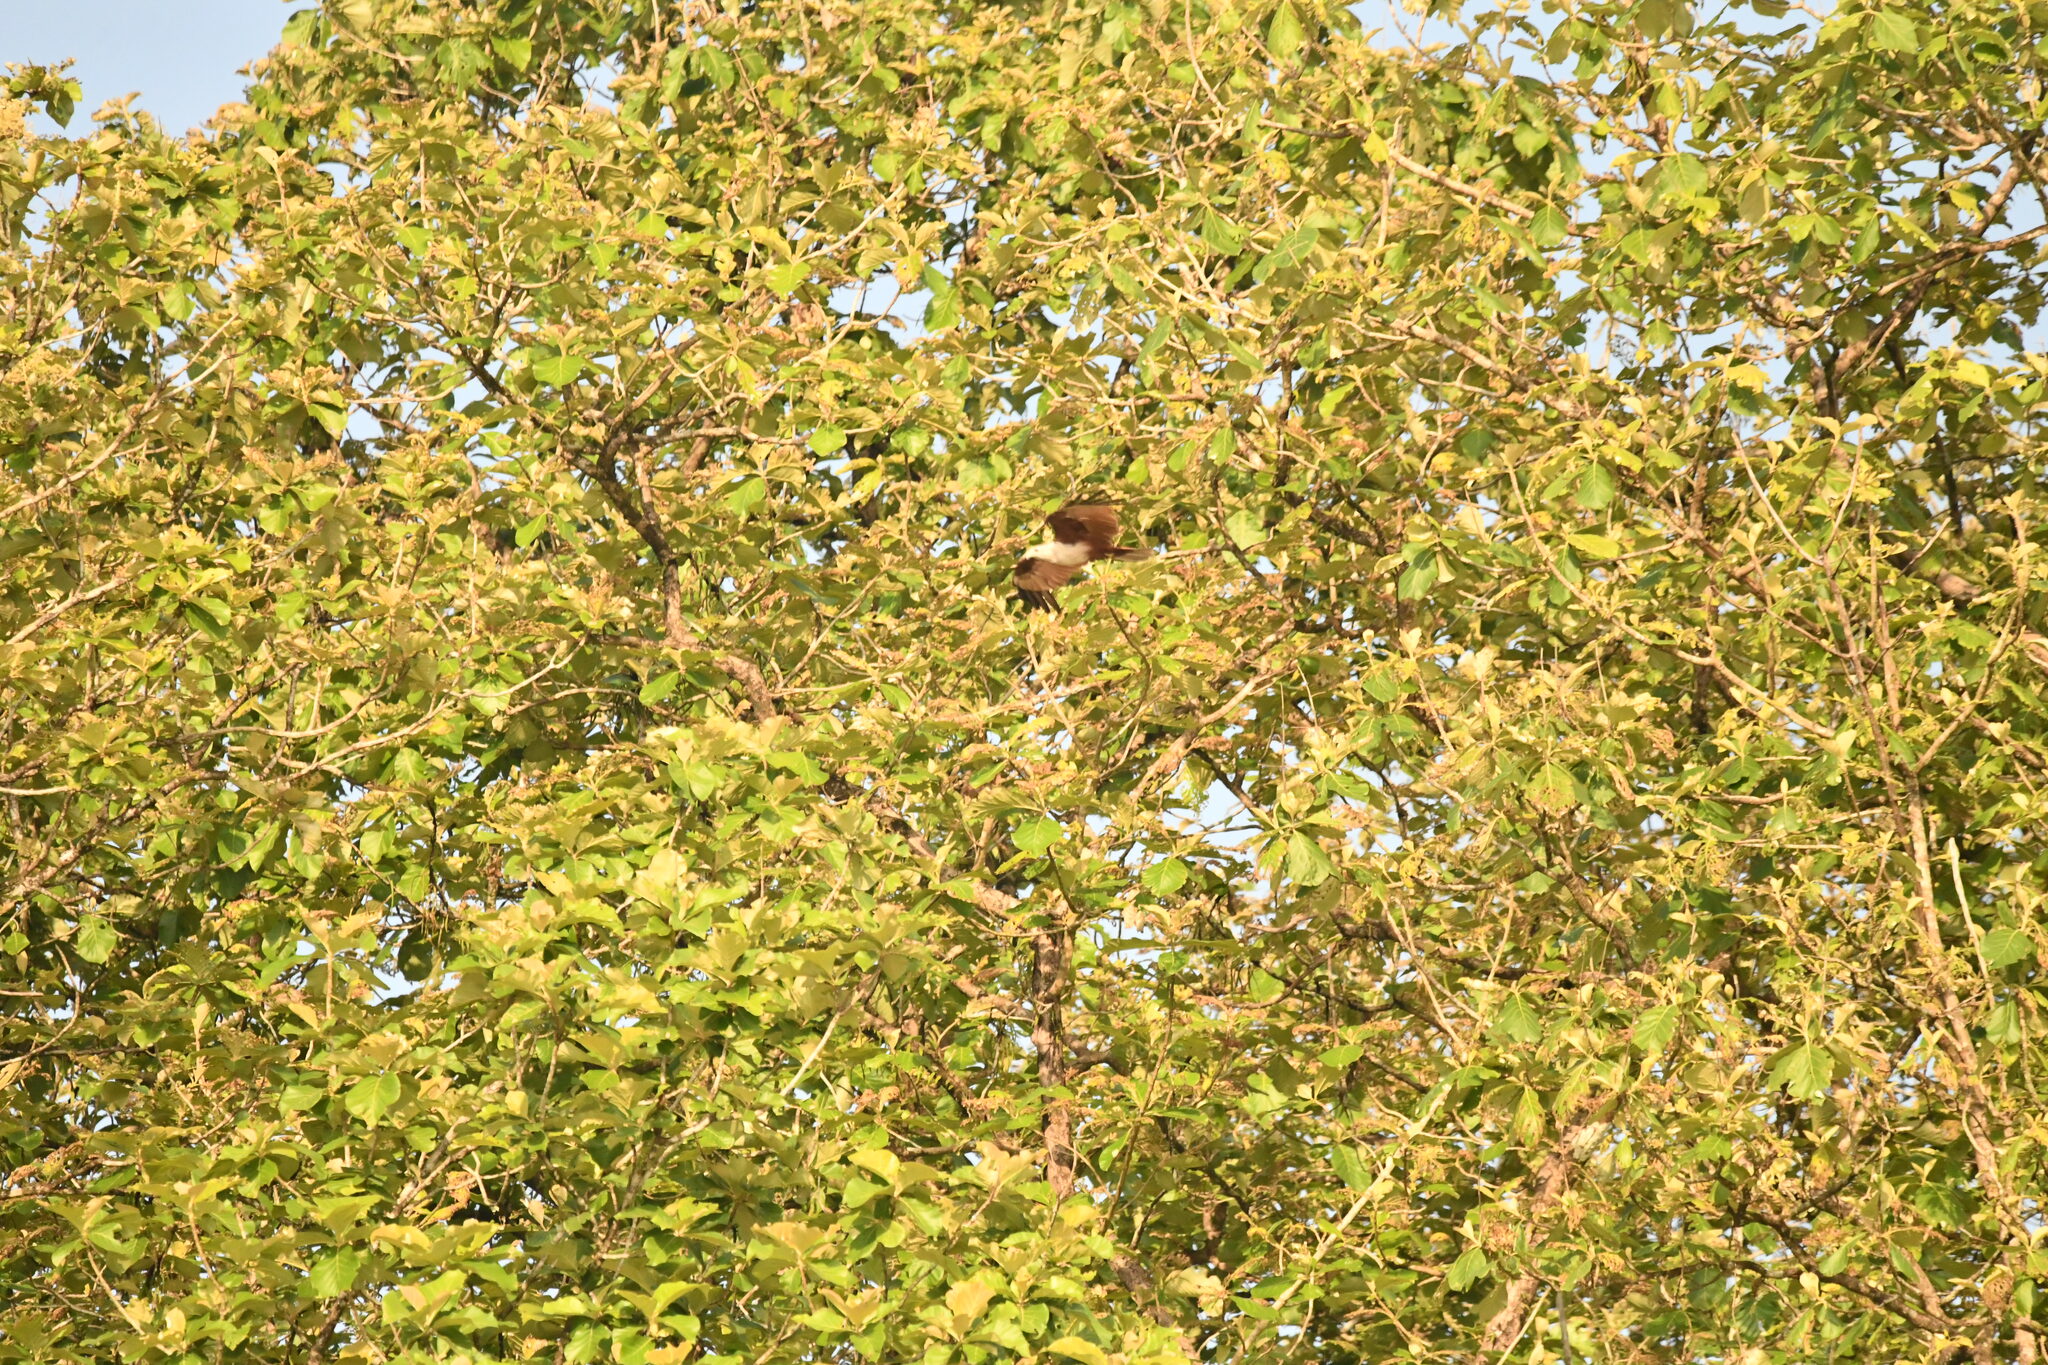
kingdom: Animalia
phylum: Chordata
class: Aves
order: Accipitriformes
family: Accipitridae
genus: Haliastur
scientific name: Haliastur indus
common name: Brahminy kite
